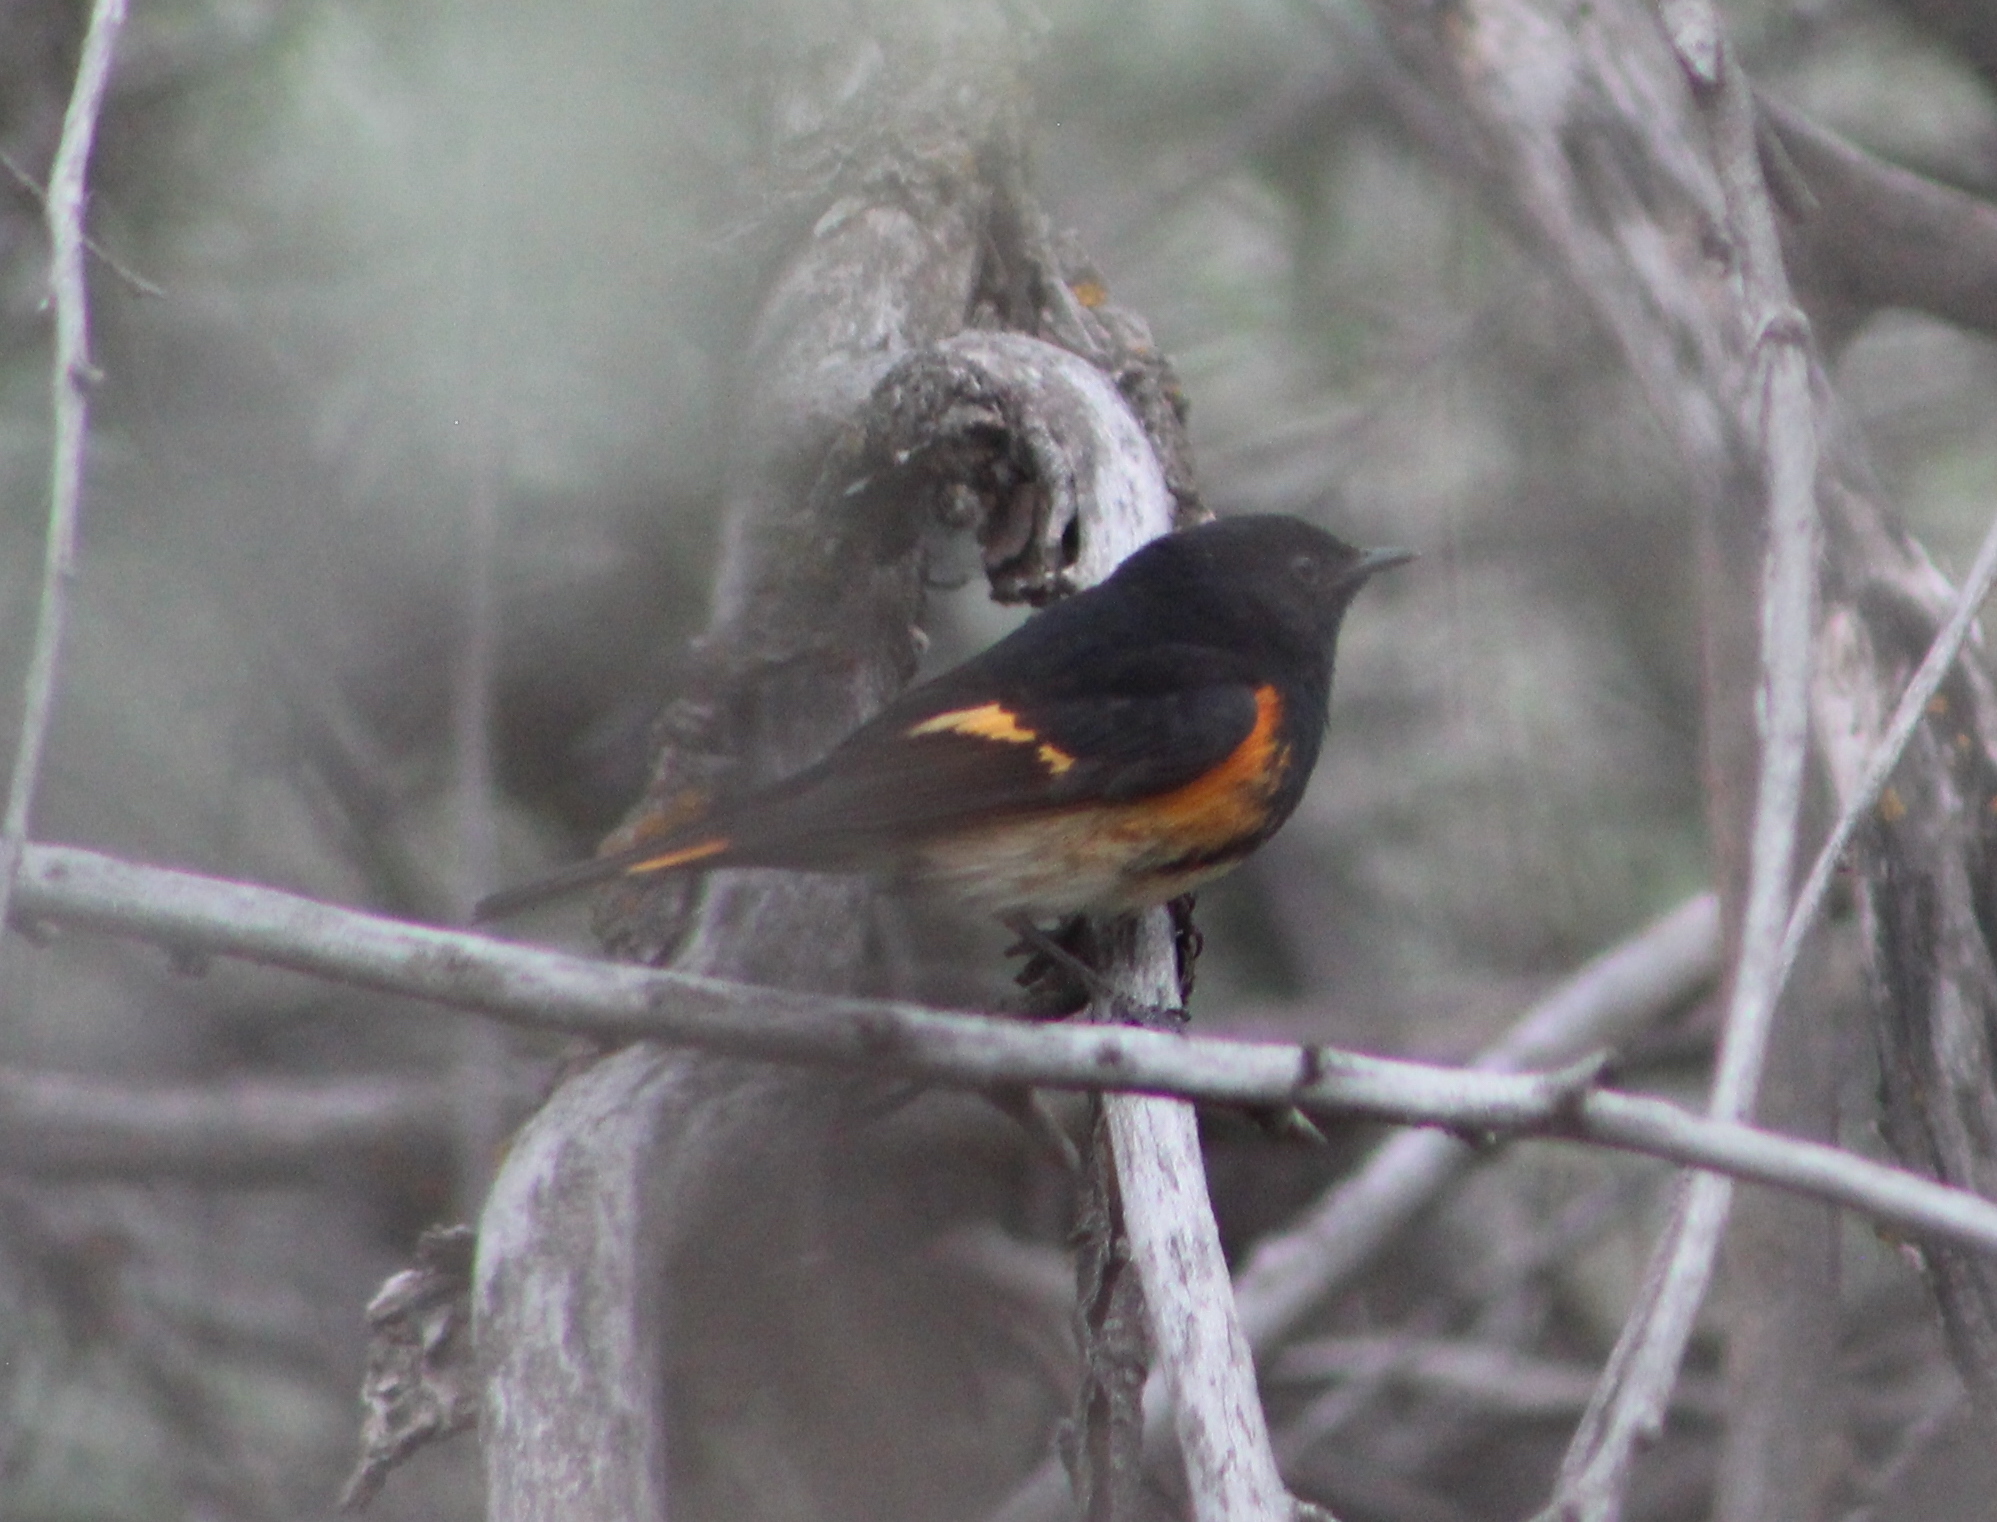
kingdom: Animalia
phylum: Chordata
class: Aves
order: Passeriformes
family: Parulidae
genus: Setophaga
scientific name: Setophaga ruticilla
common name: American redstart
